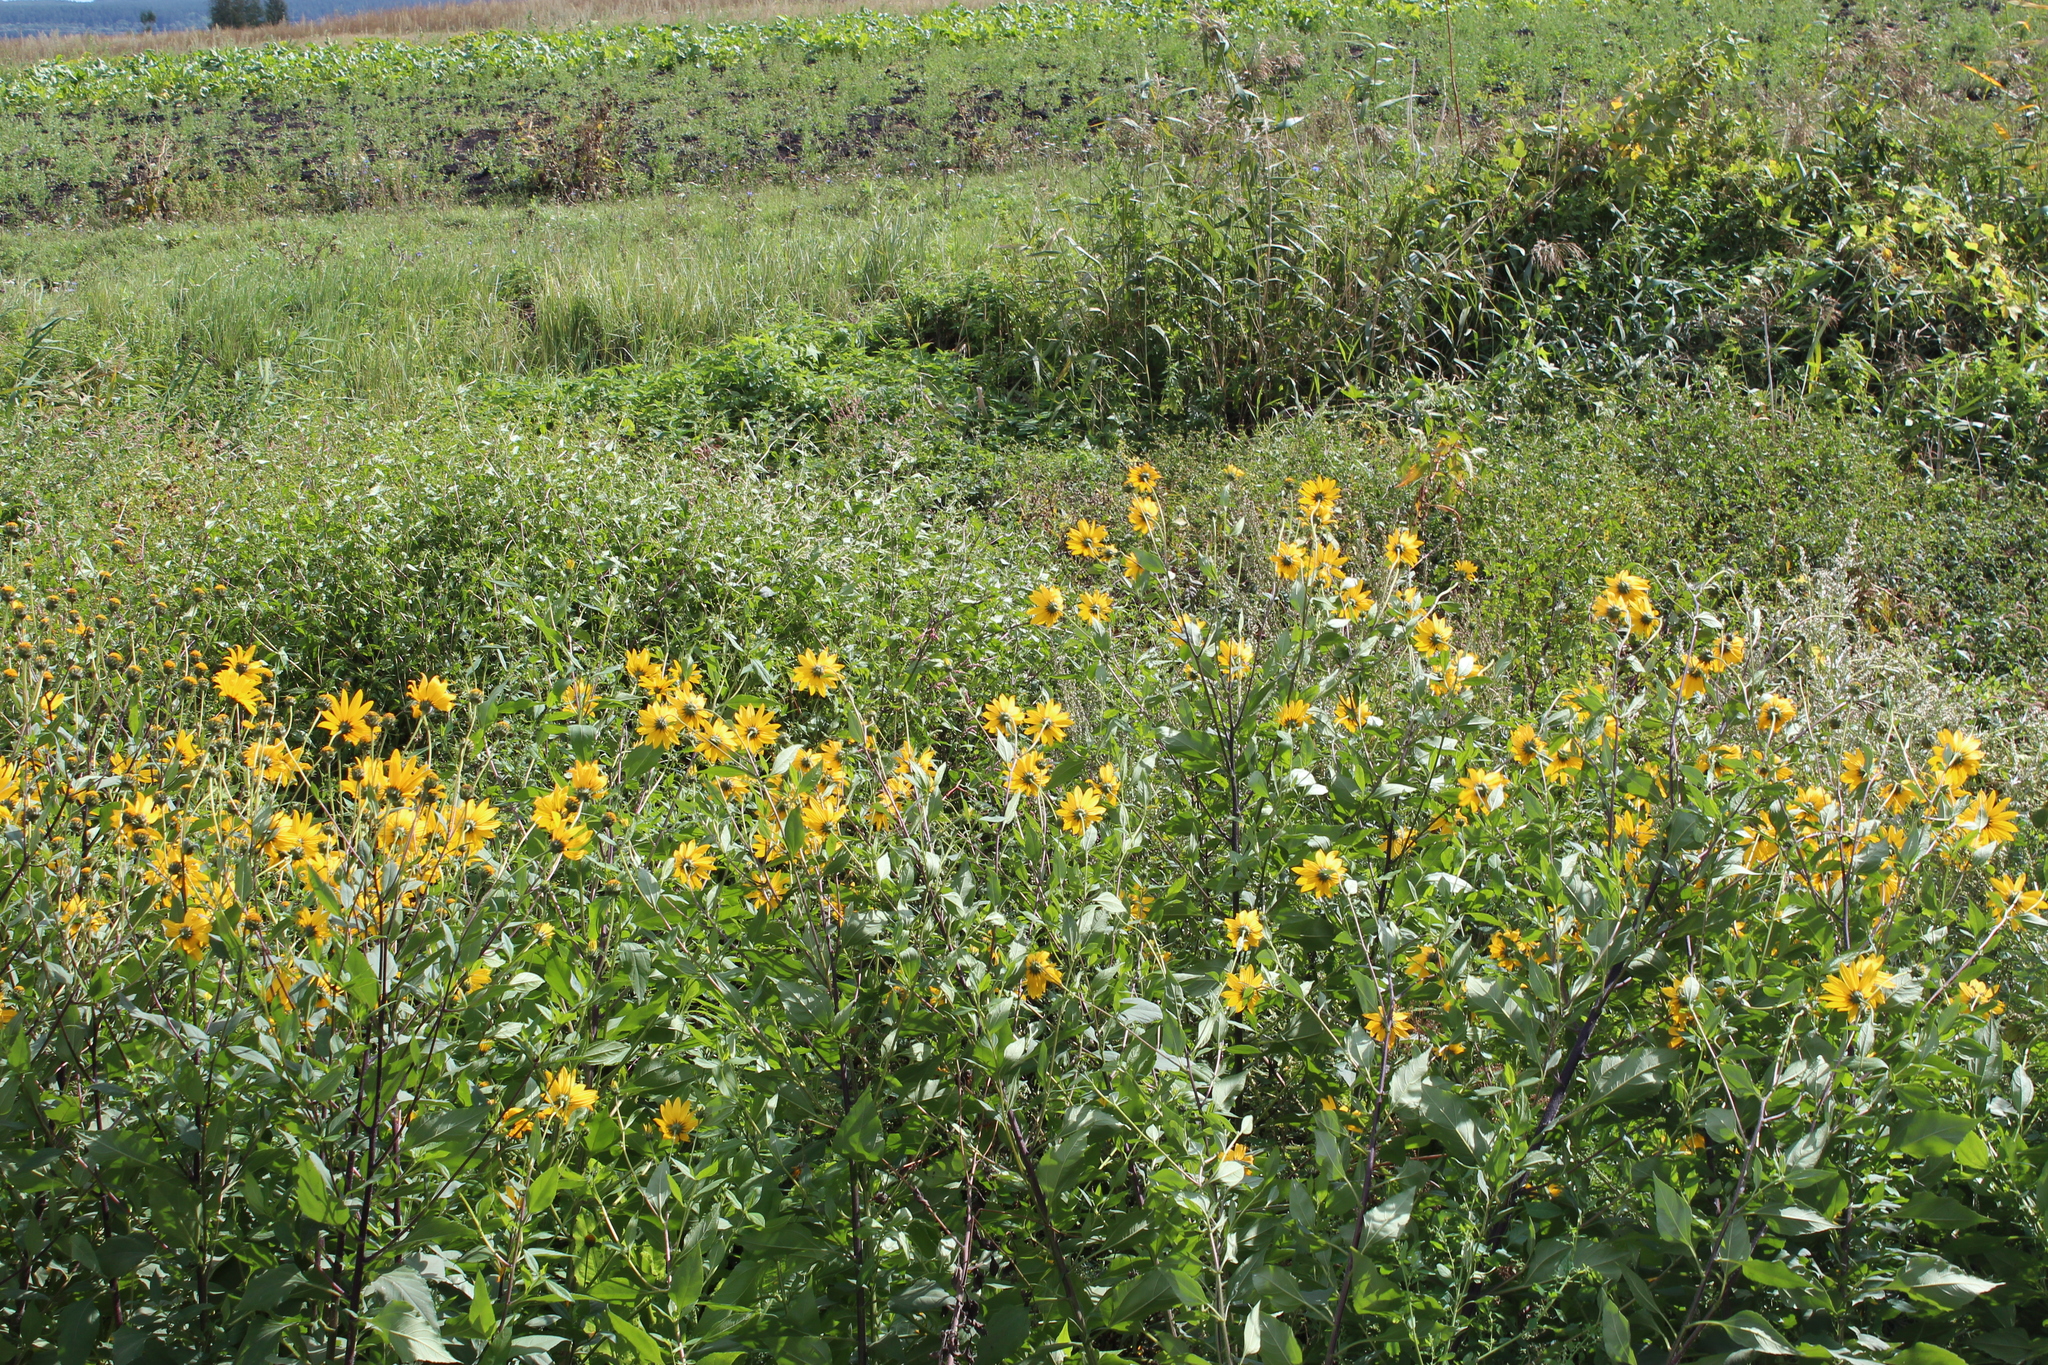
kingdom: Plantae
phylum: Tracheophyta
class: Magnoliopsida
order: Asterales
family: Asteraceae
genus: Helianthus
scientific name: Helianthus tuberosus
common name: Jerusalem artichoke
